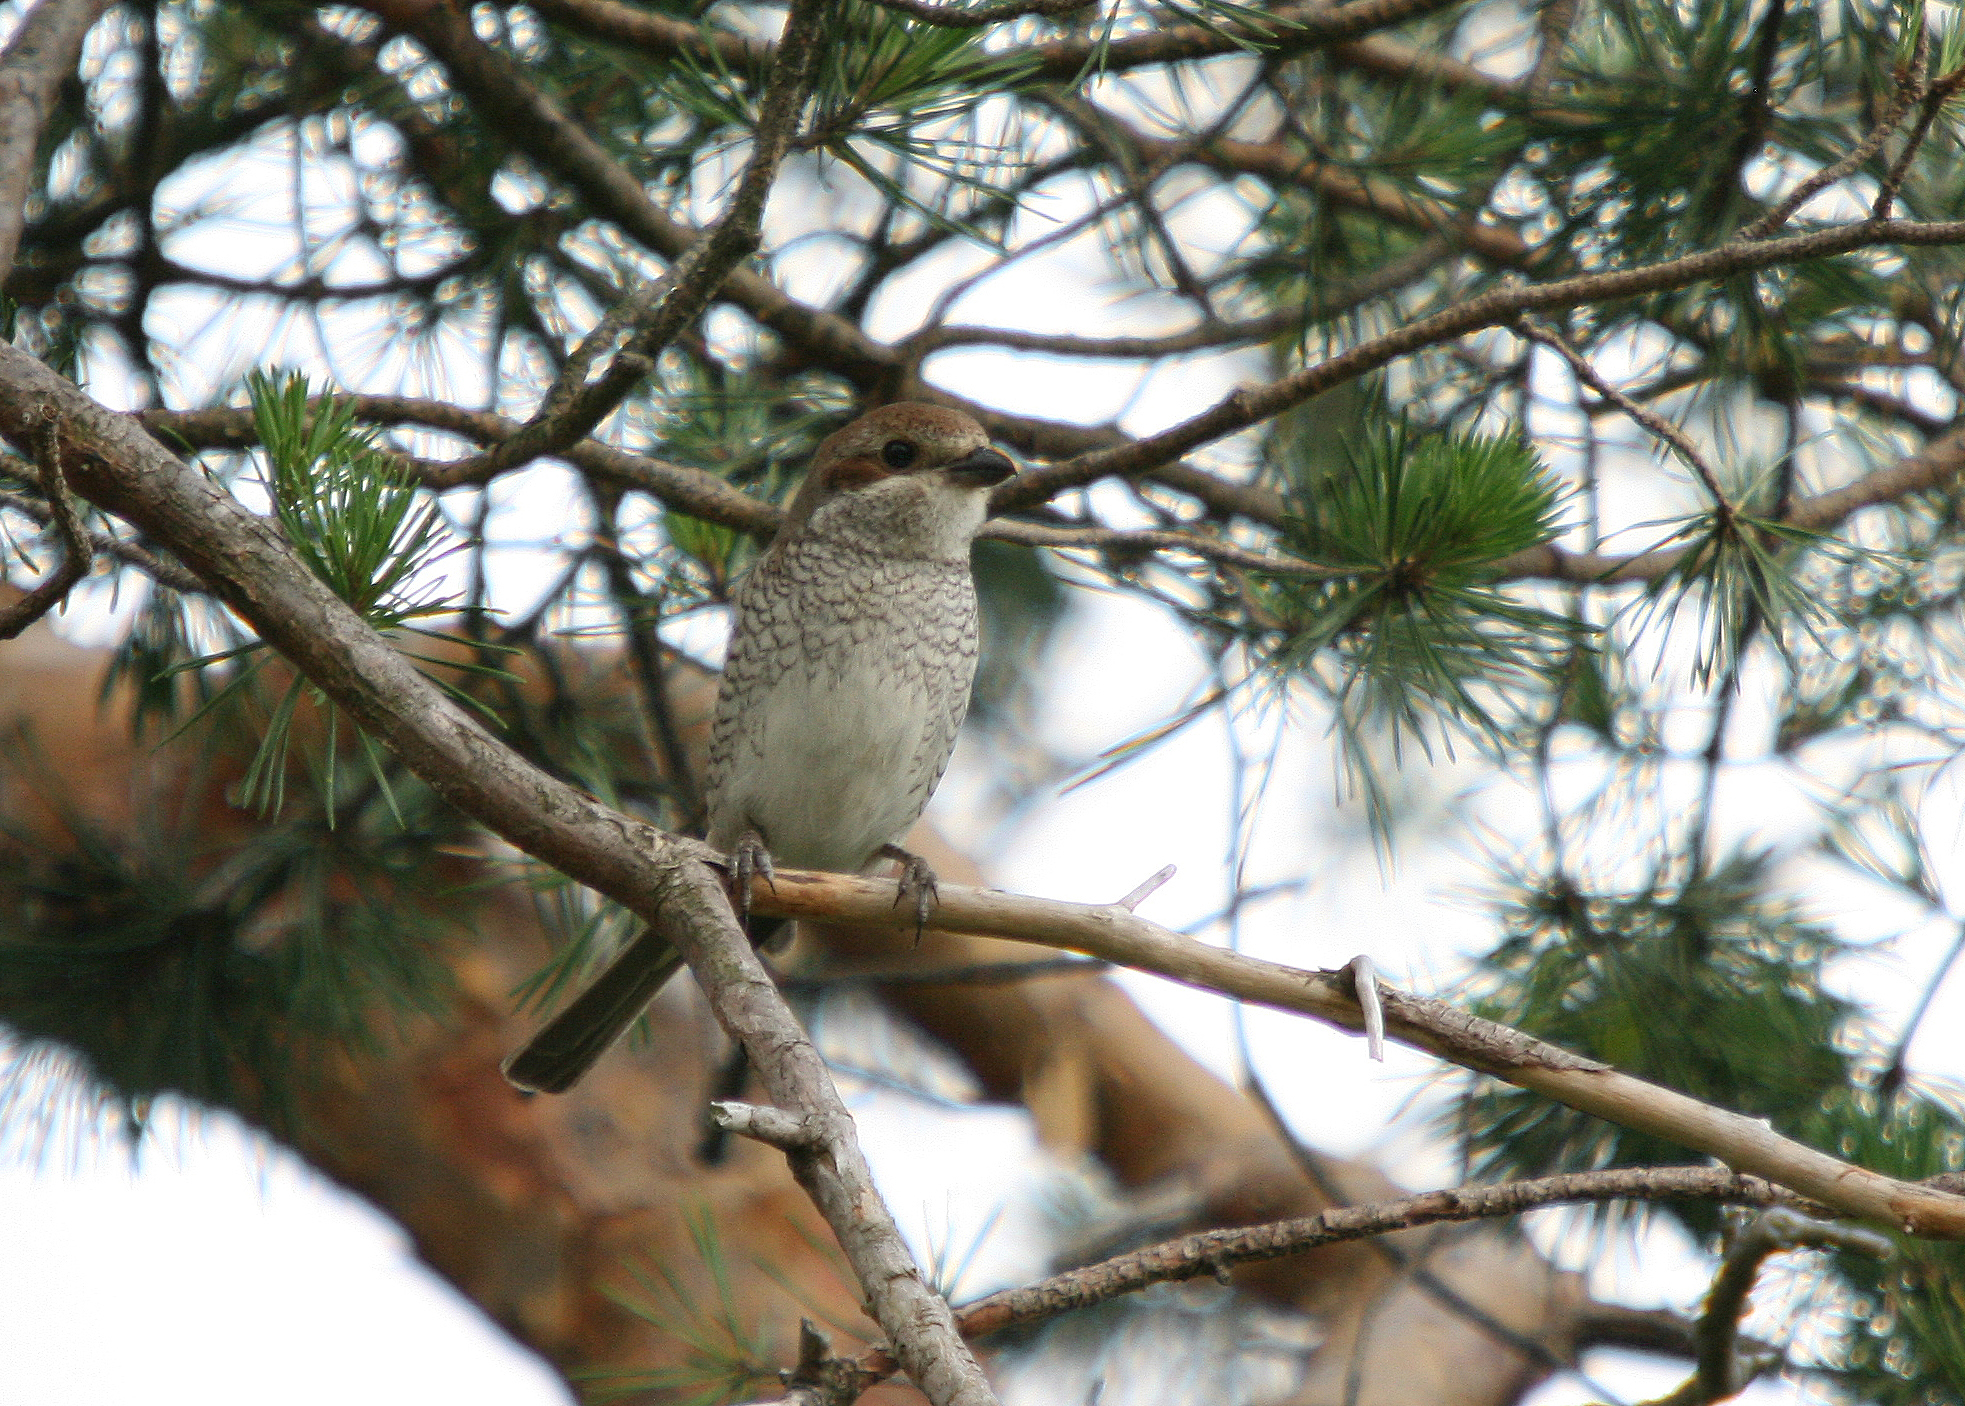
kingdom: Animalia
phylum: Chordata
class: Aves
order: Passeriformes
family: Laniidae
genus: Lanius
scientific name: Lanius collurio
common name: Red-backed shrike
